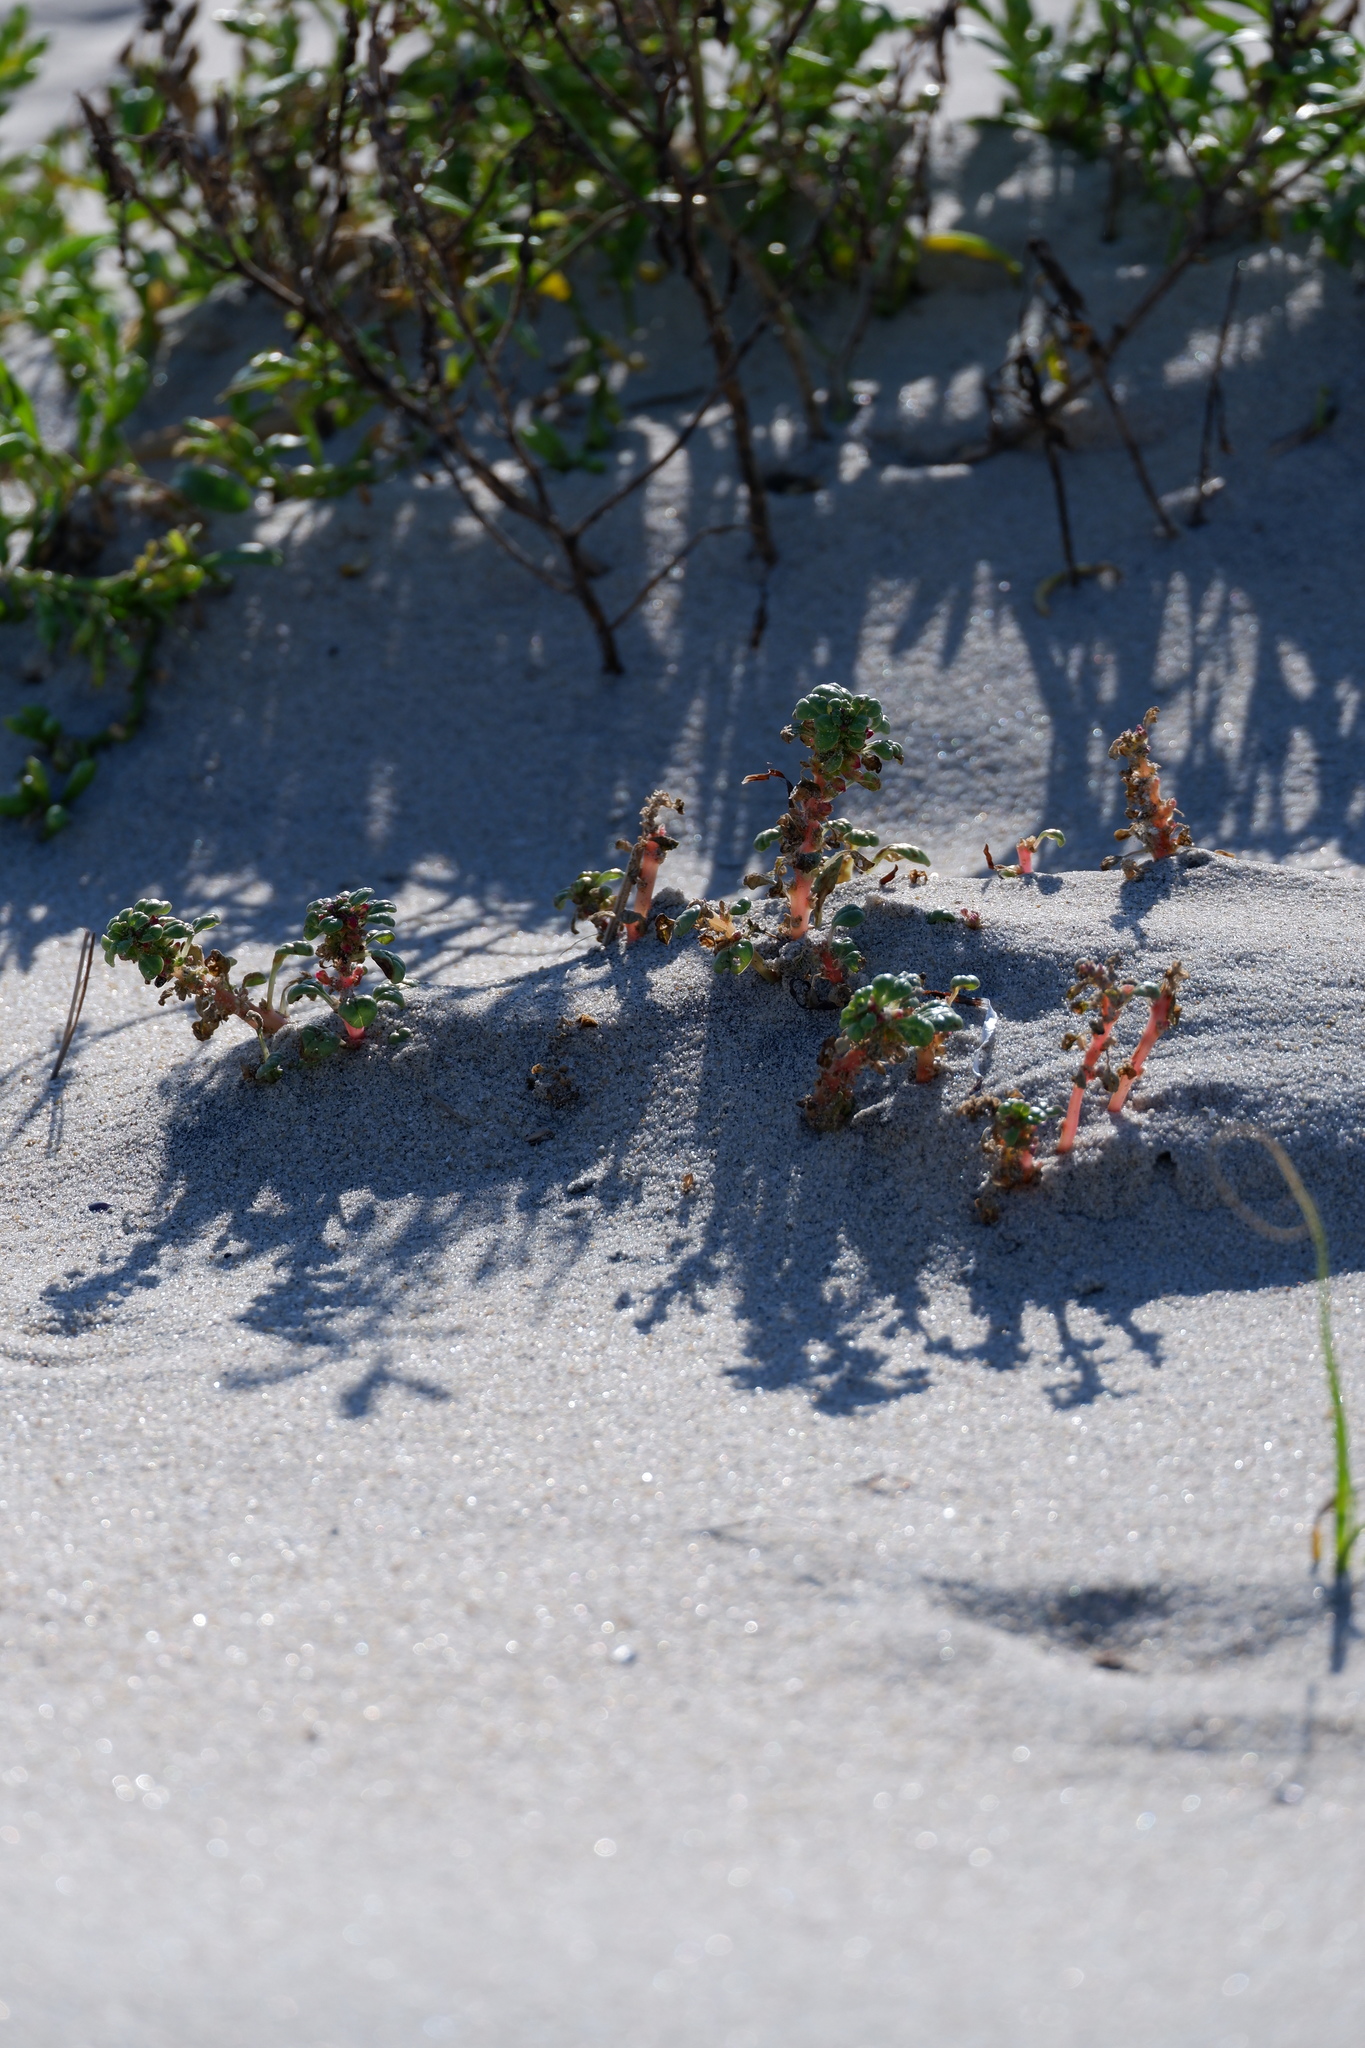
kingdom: Plantae
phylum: Tracheophyta
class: Magnoliopsida
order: Caryophyllales
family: Amaranthaceae
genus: Amaranthus
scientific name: Amaranthus pumilus
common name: Coast amaranth
